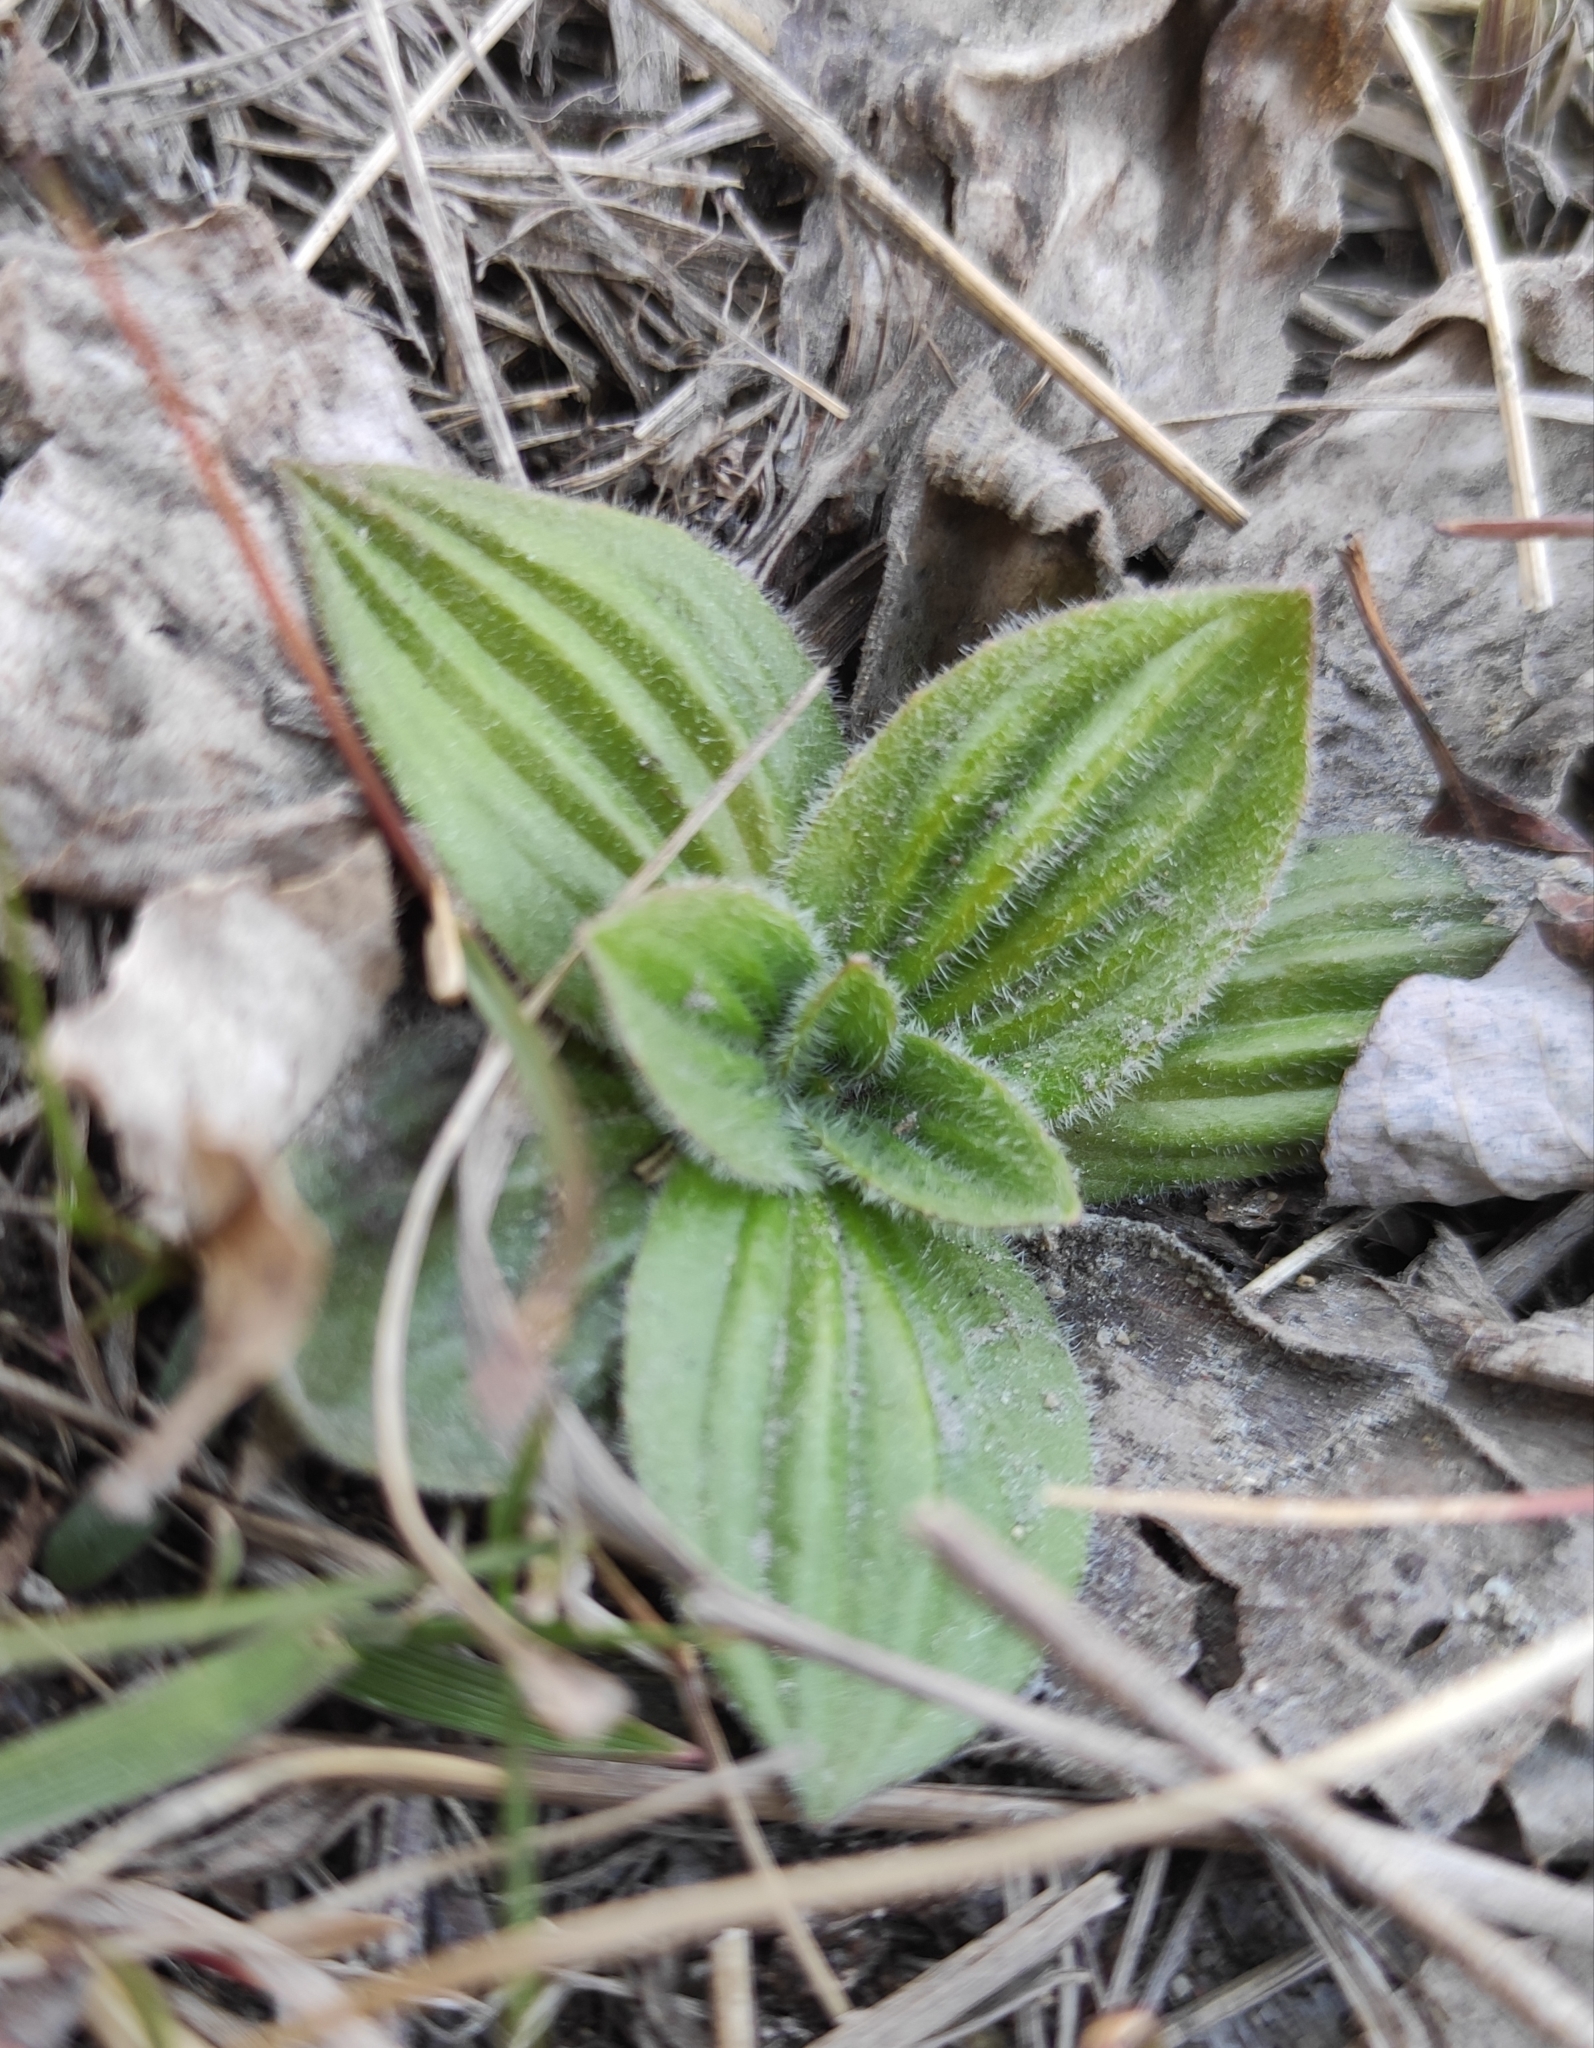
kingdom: Plantae
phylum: Tracheophyta
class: Magnoliopsida
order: Lamiales
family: Plantaginaceae
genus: Plantago
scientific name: Plantago media
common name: Hoary plantain
